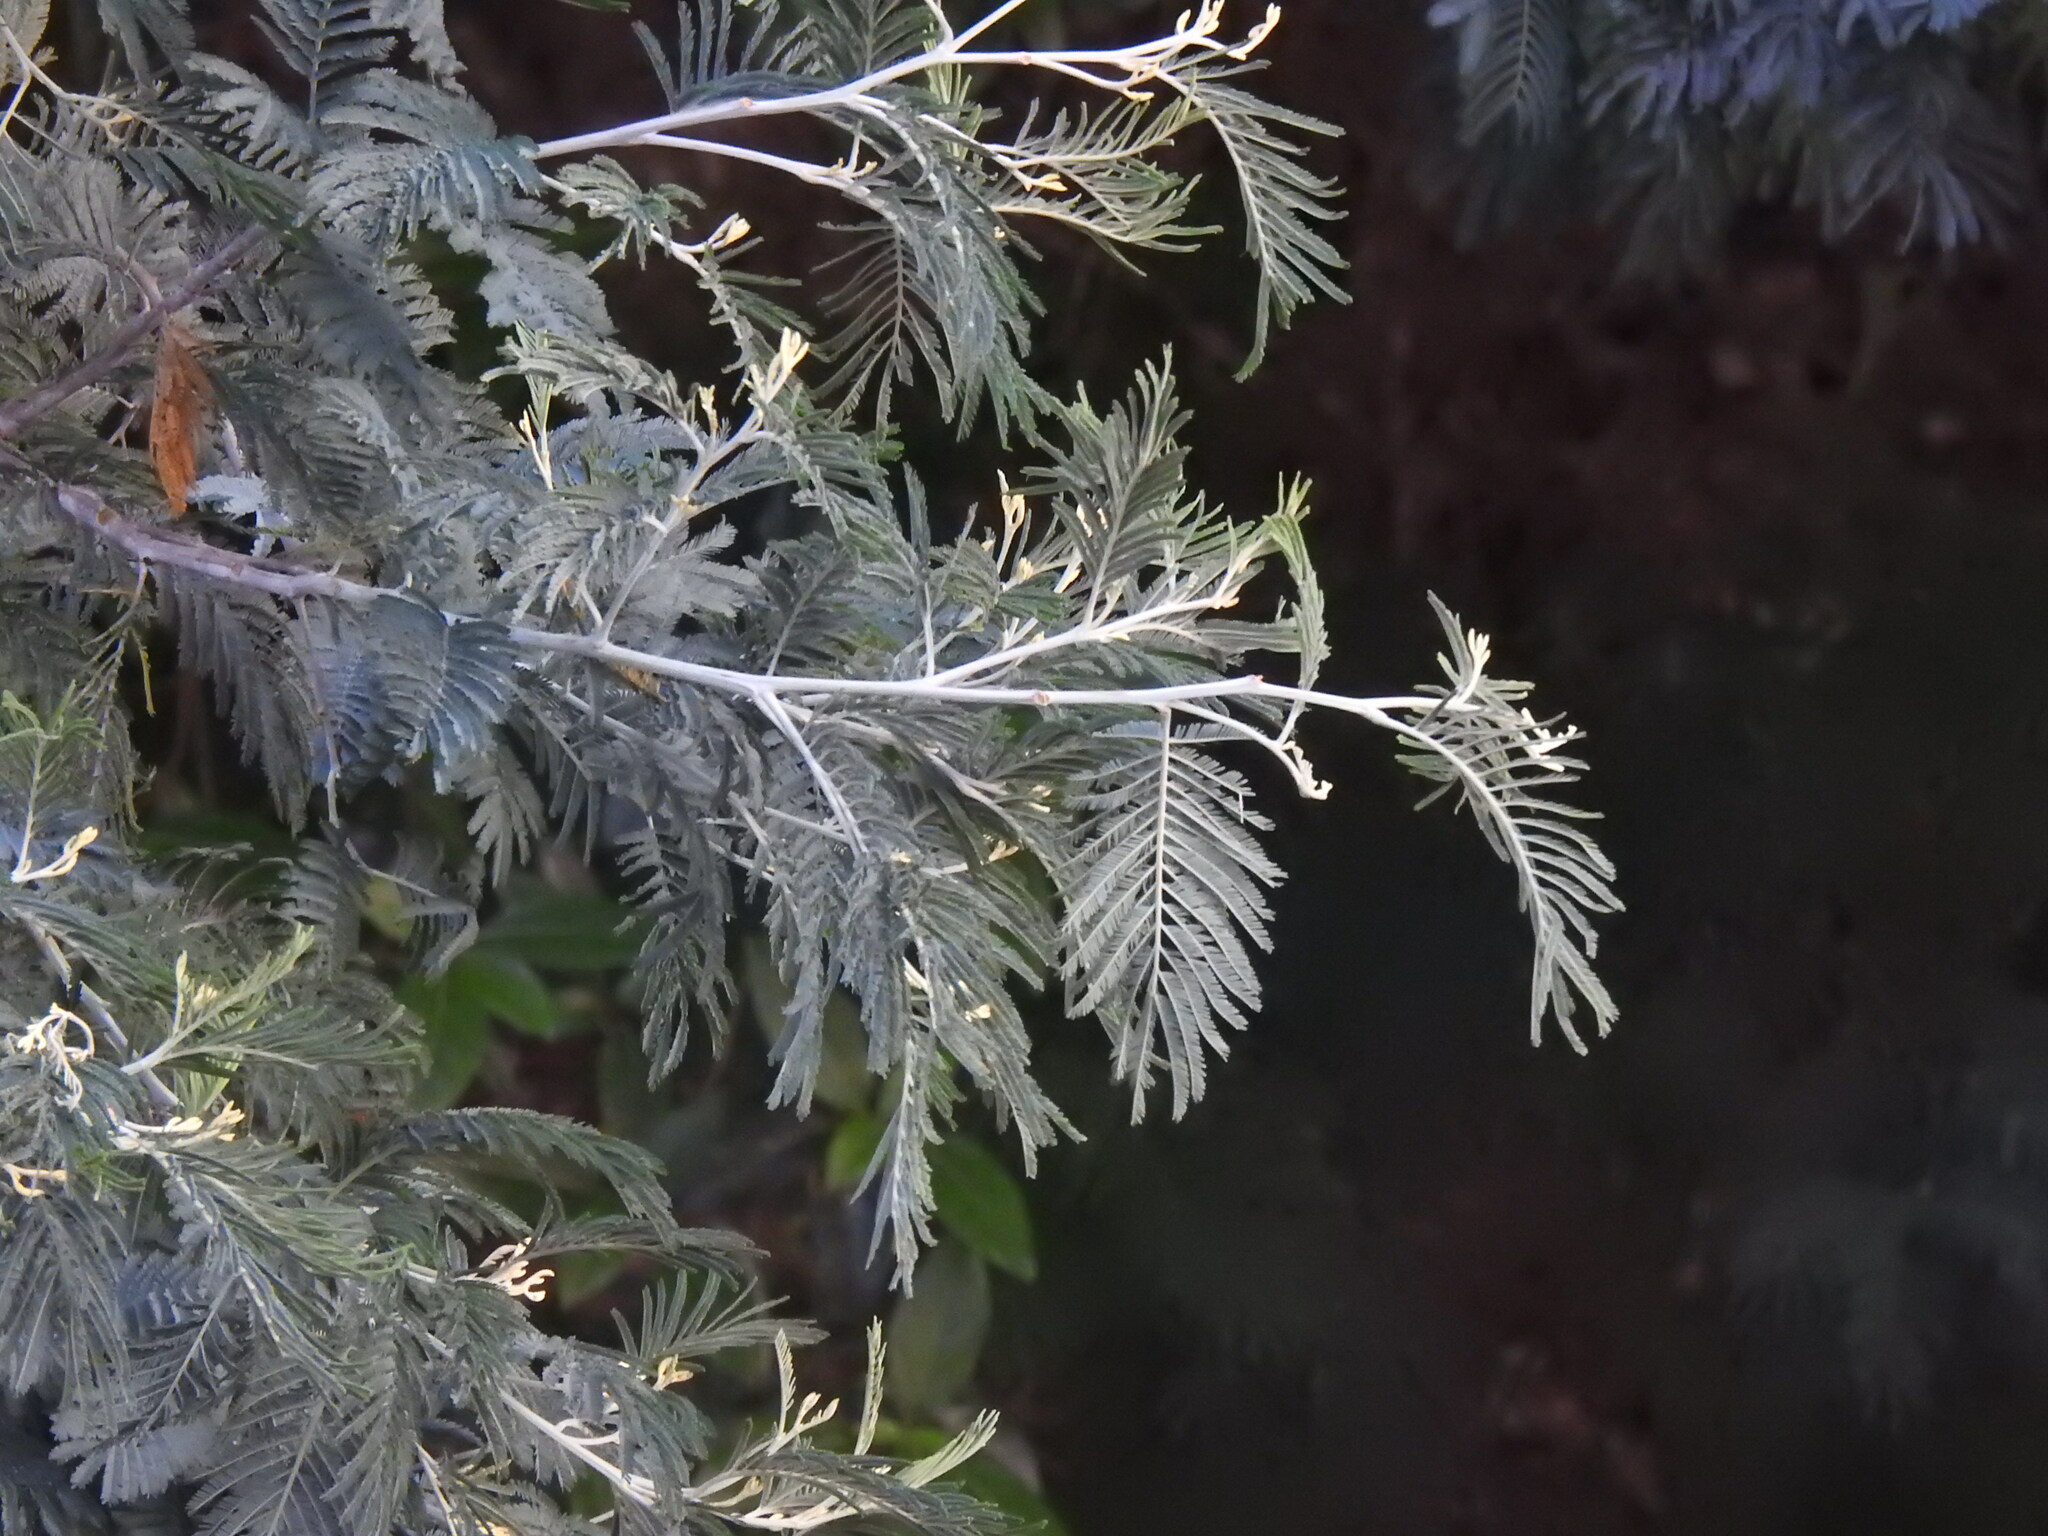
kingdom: Plantae
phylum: Tracheophyta
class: Magnoliopsida
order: Fabales
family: Fabaceae
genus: Acacia
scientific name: Acacia dealbata
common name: Silver wattle
